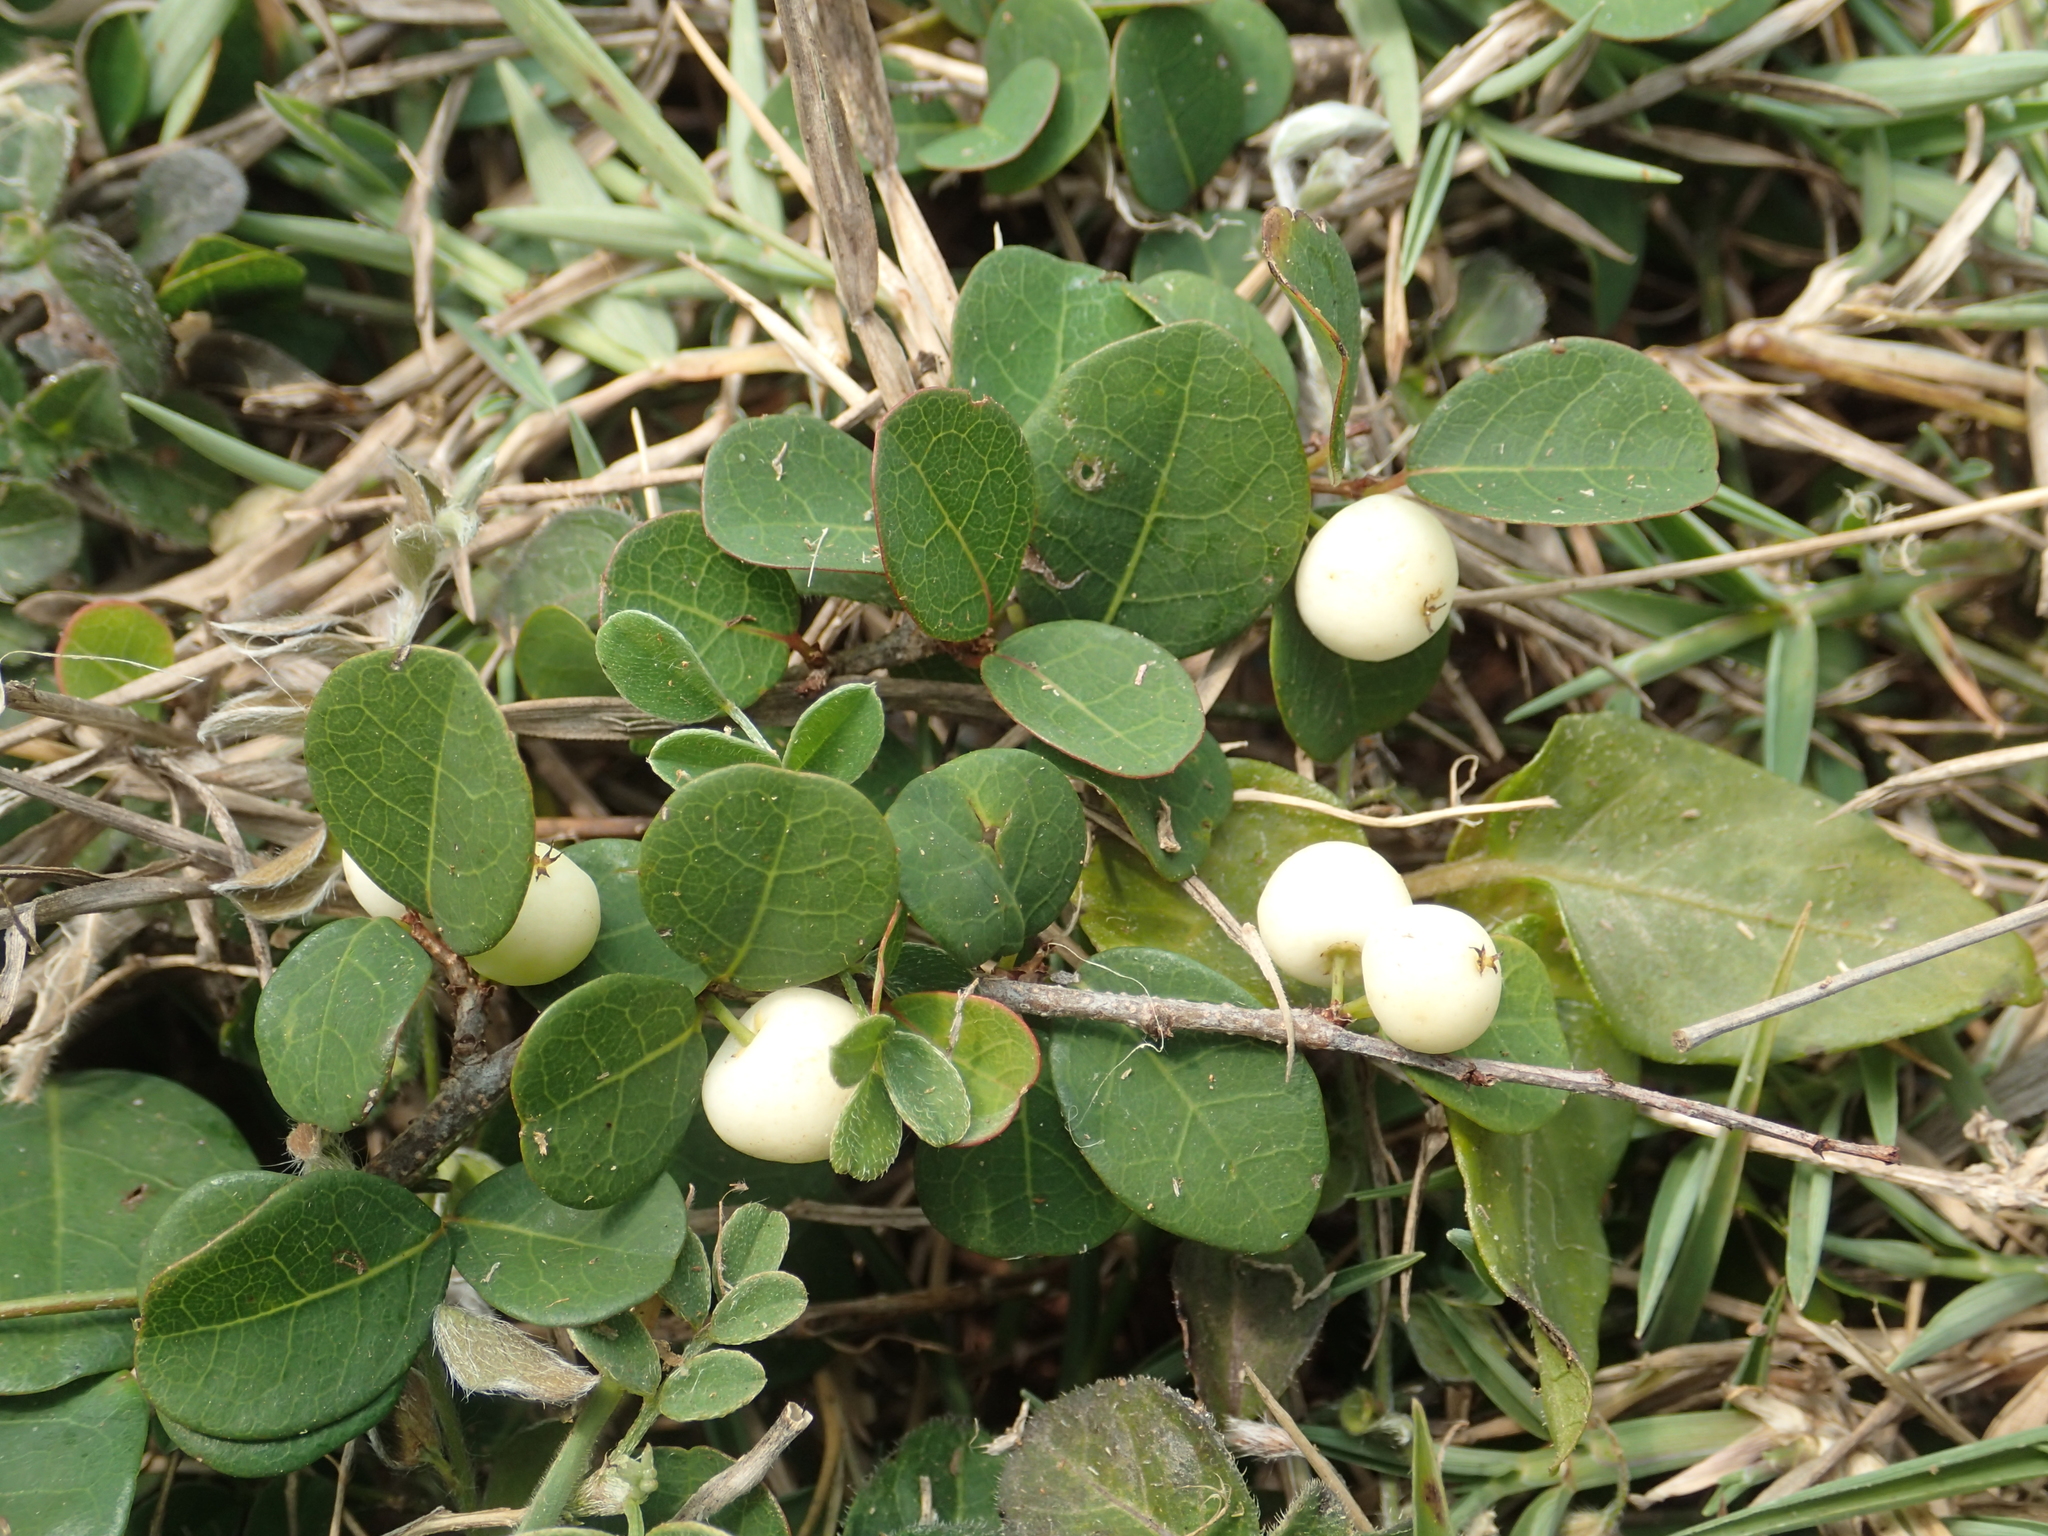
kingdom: Plantae
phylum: Tracheophyta
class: Magnoliopsida
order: Malpighiales
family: Phyllanthaceae
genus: Flueggea
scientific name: Flueggea virosa
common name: Common bushweed
